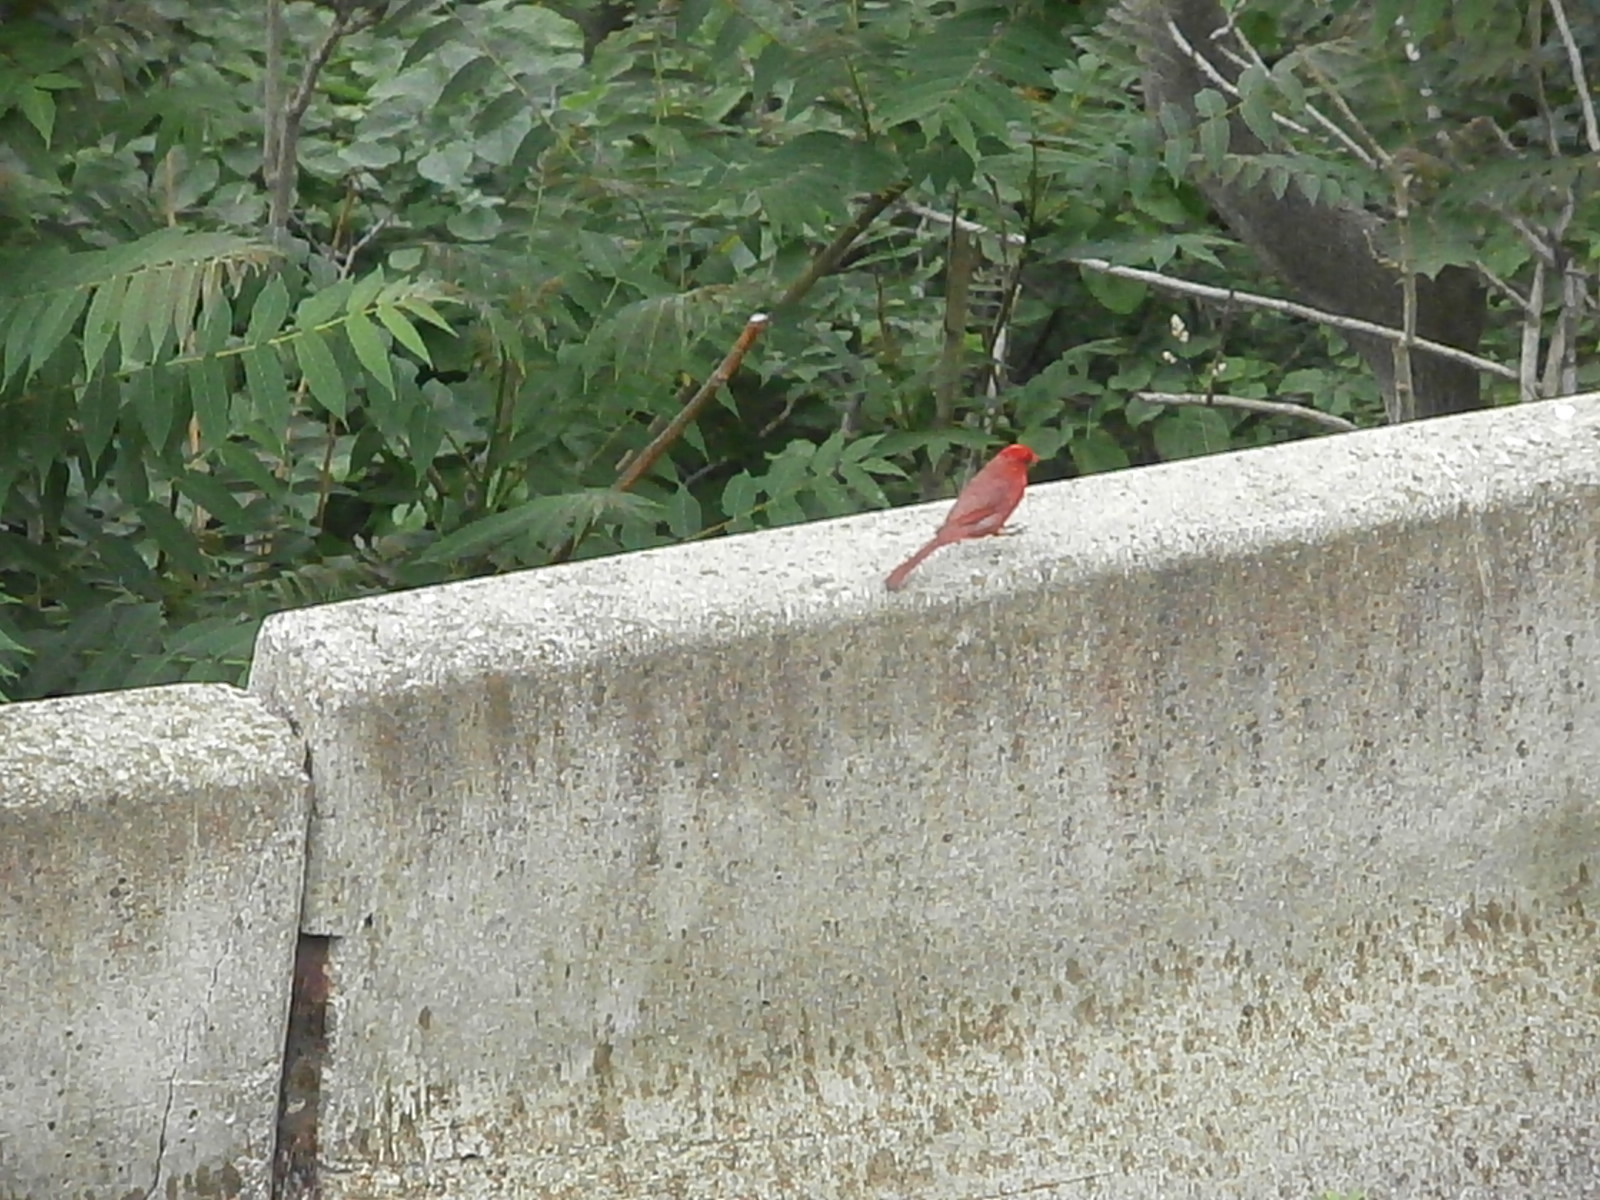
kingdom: Animalia
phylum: Chordata
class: Aves
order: Passeriformes
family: Cardinalidae
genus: Cardinalis
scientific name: Cardinalis cardinalis
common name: Northern cardinal
